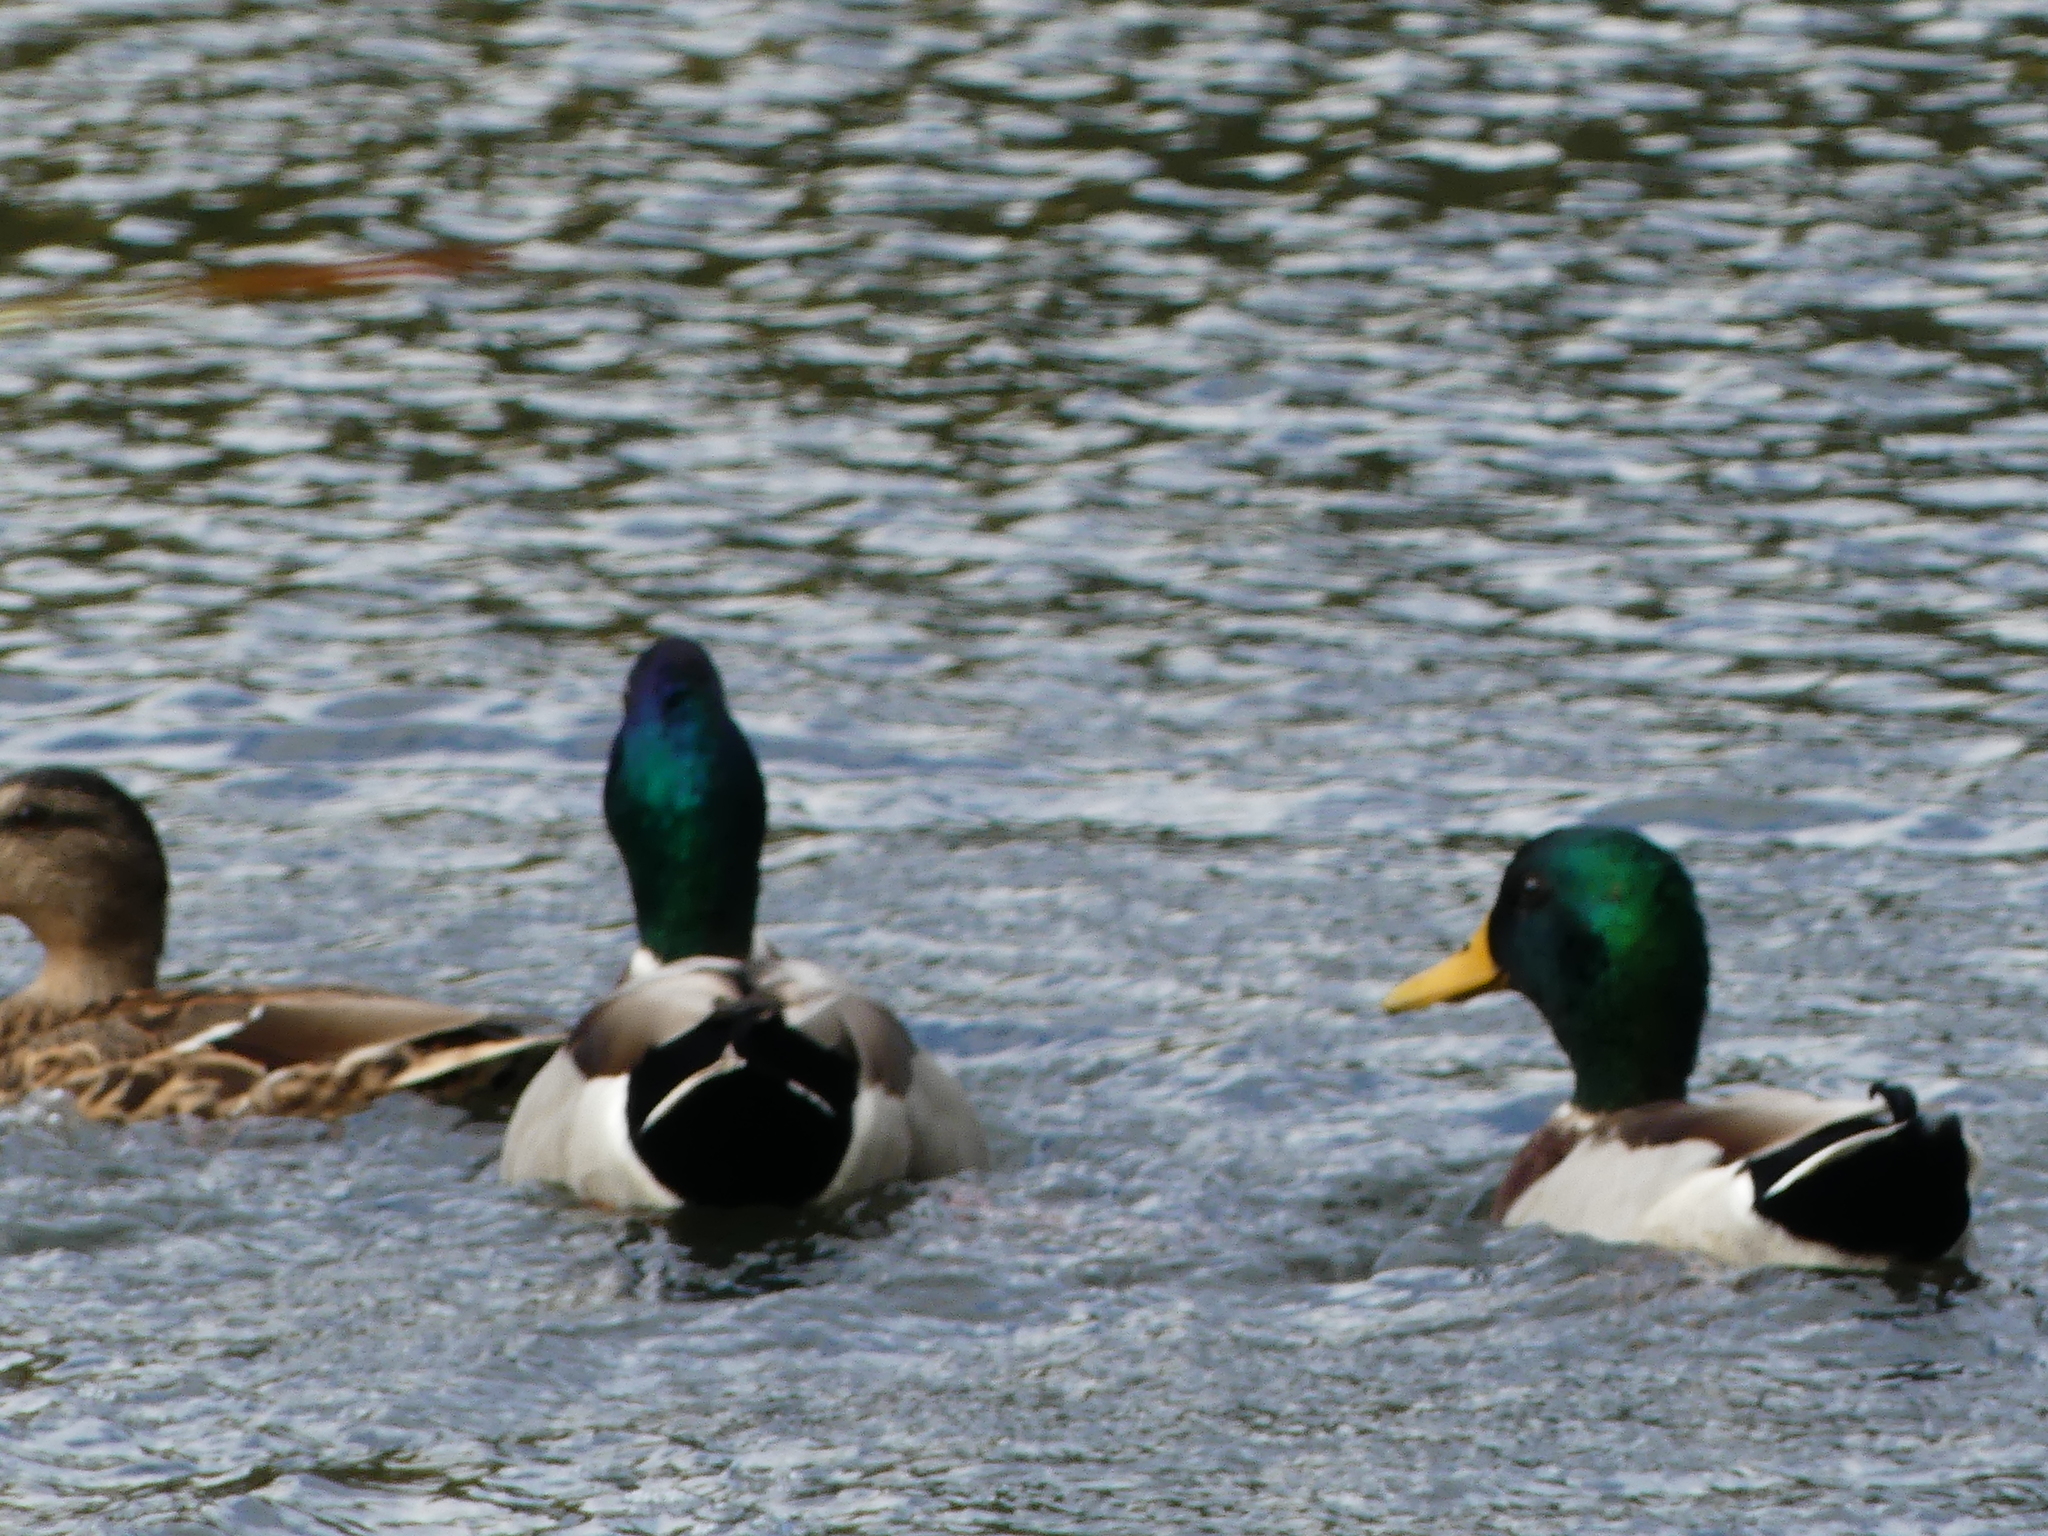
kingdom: Animalia
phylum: Chordata
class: Aves
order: Anseriformes
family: Anatidae
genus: Anas
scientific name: Anas platyrhynchos
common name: Mallard
